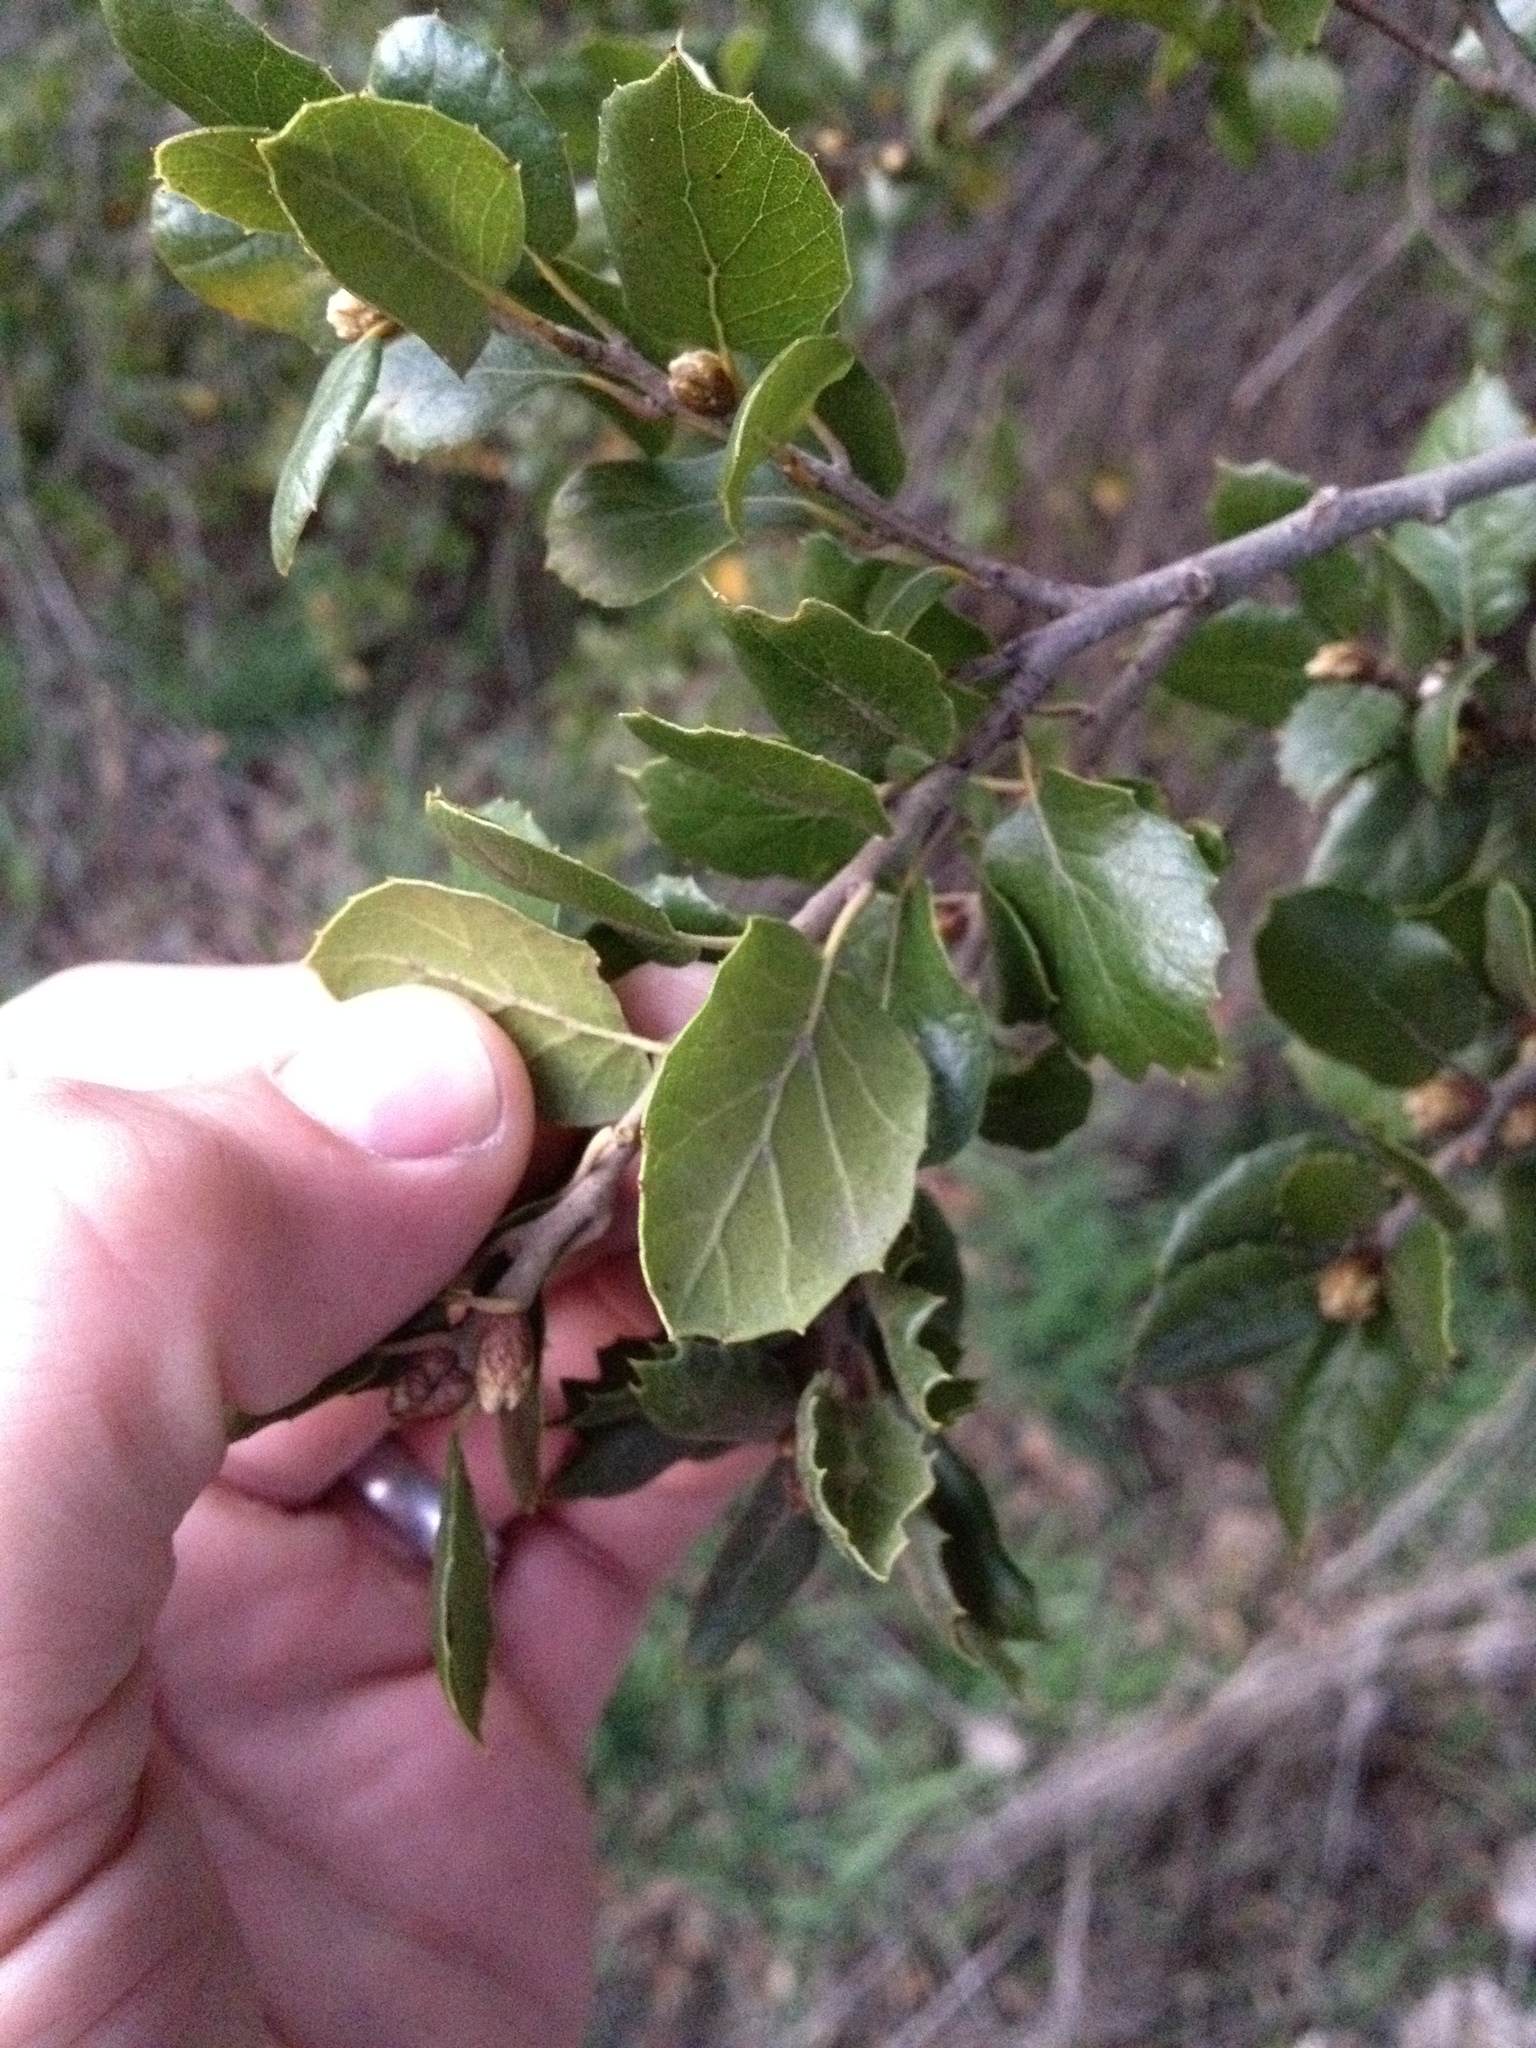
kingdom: Plantae
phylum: Tracheophyta
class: Magnoliopsida
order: Fagales
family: Fagaceae
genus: Quercus
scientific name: Quercus agrifolia
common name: California live oak
